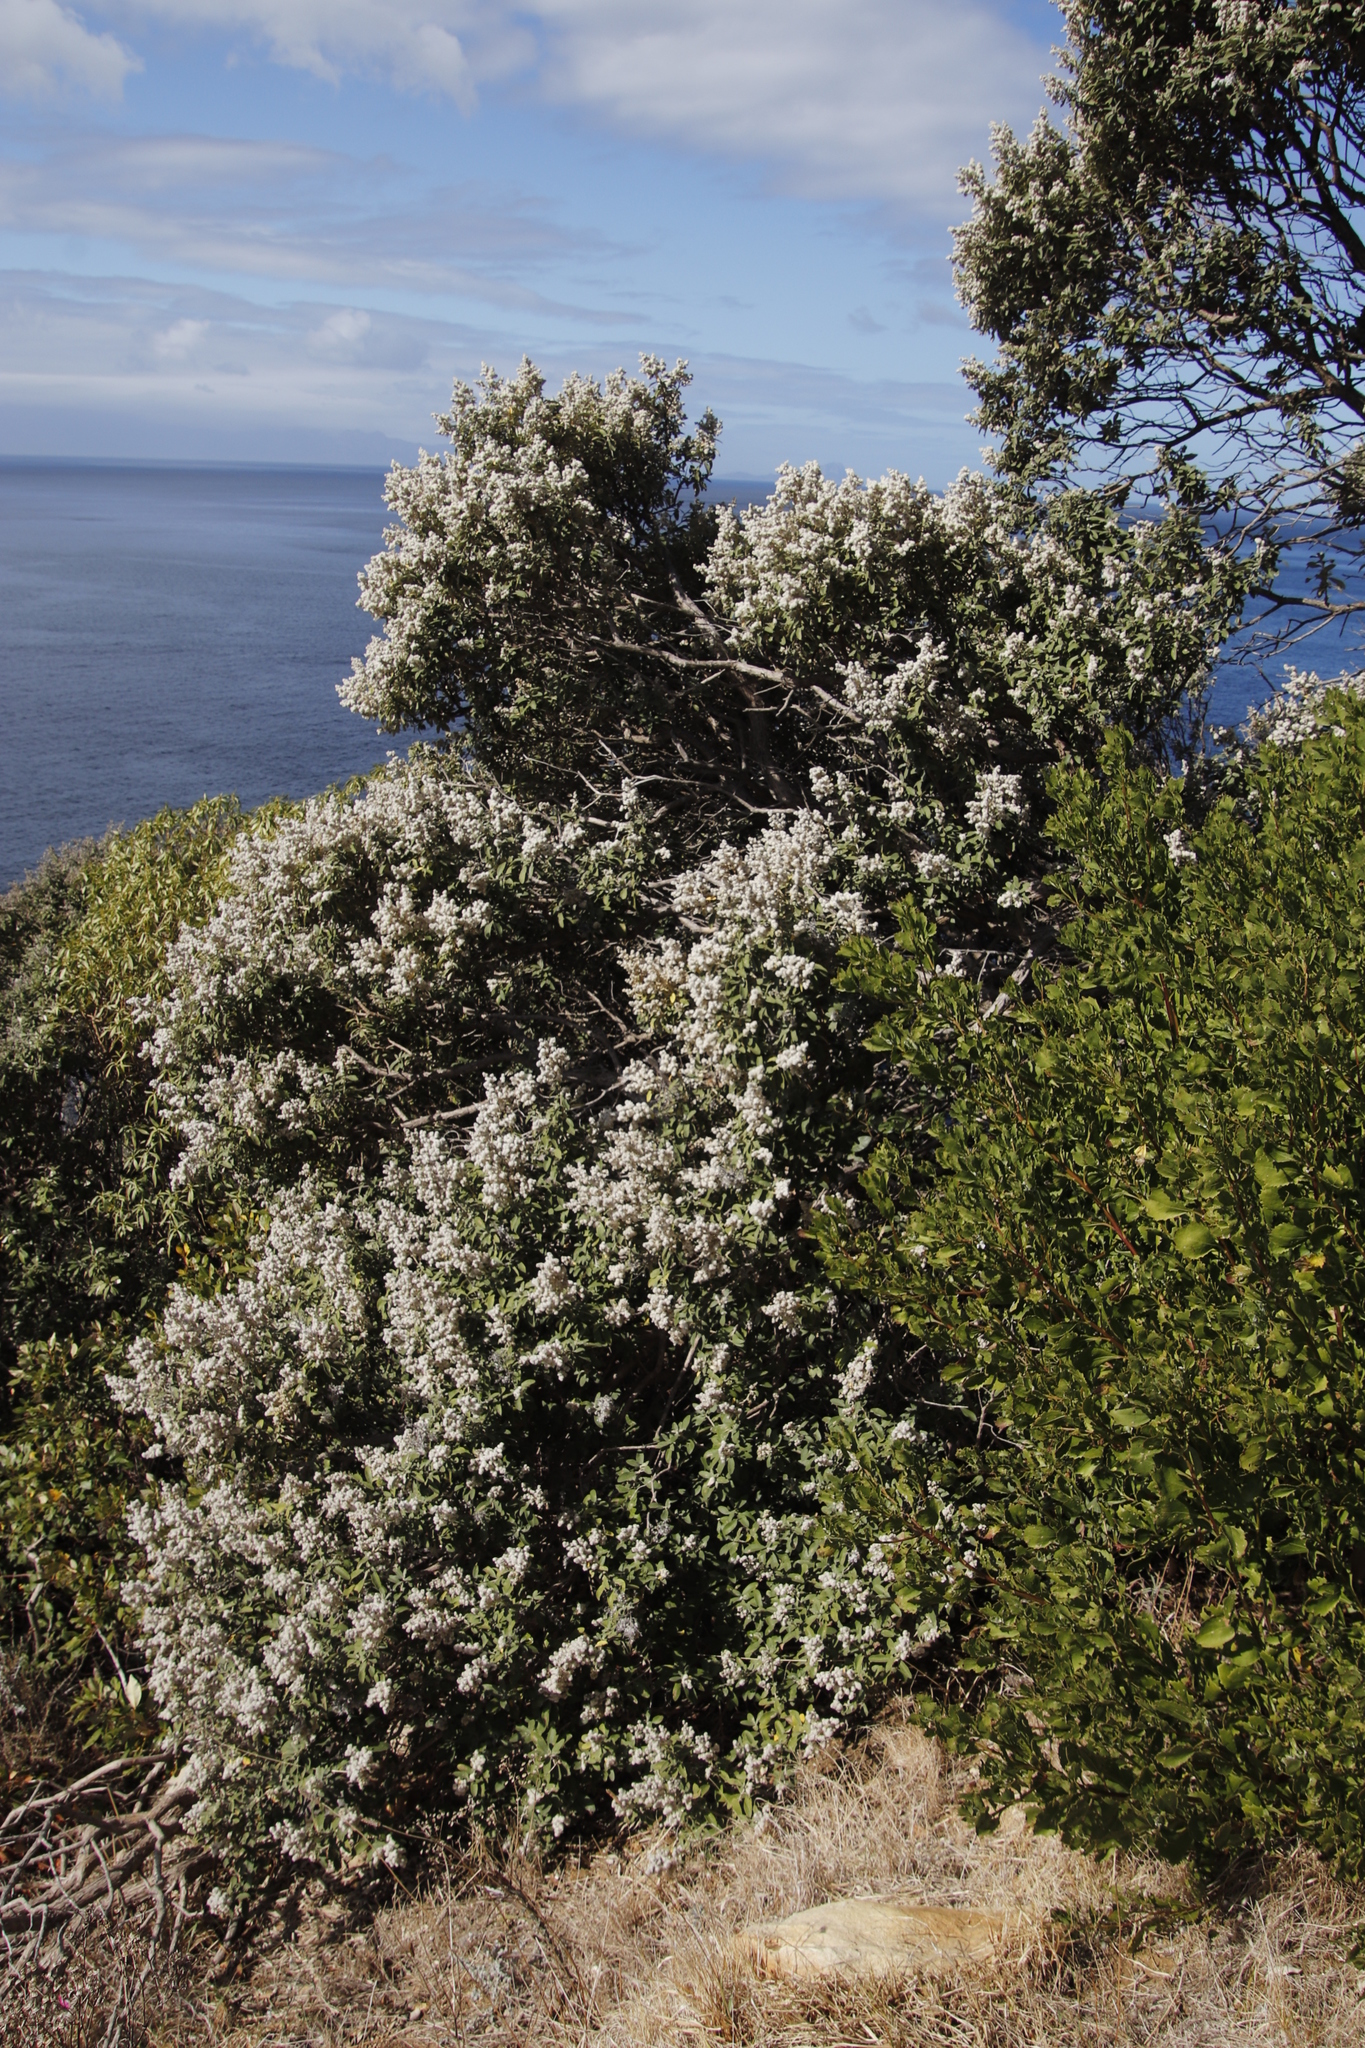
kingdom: Plantae
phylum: Tracheophyta
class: Magnoliopsida
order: Asterales
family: Asteraceae
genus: Tarchonanthus
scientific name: Tarchonanthus littoralis
